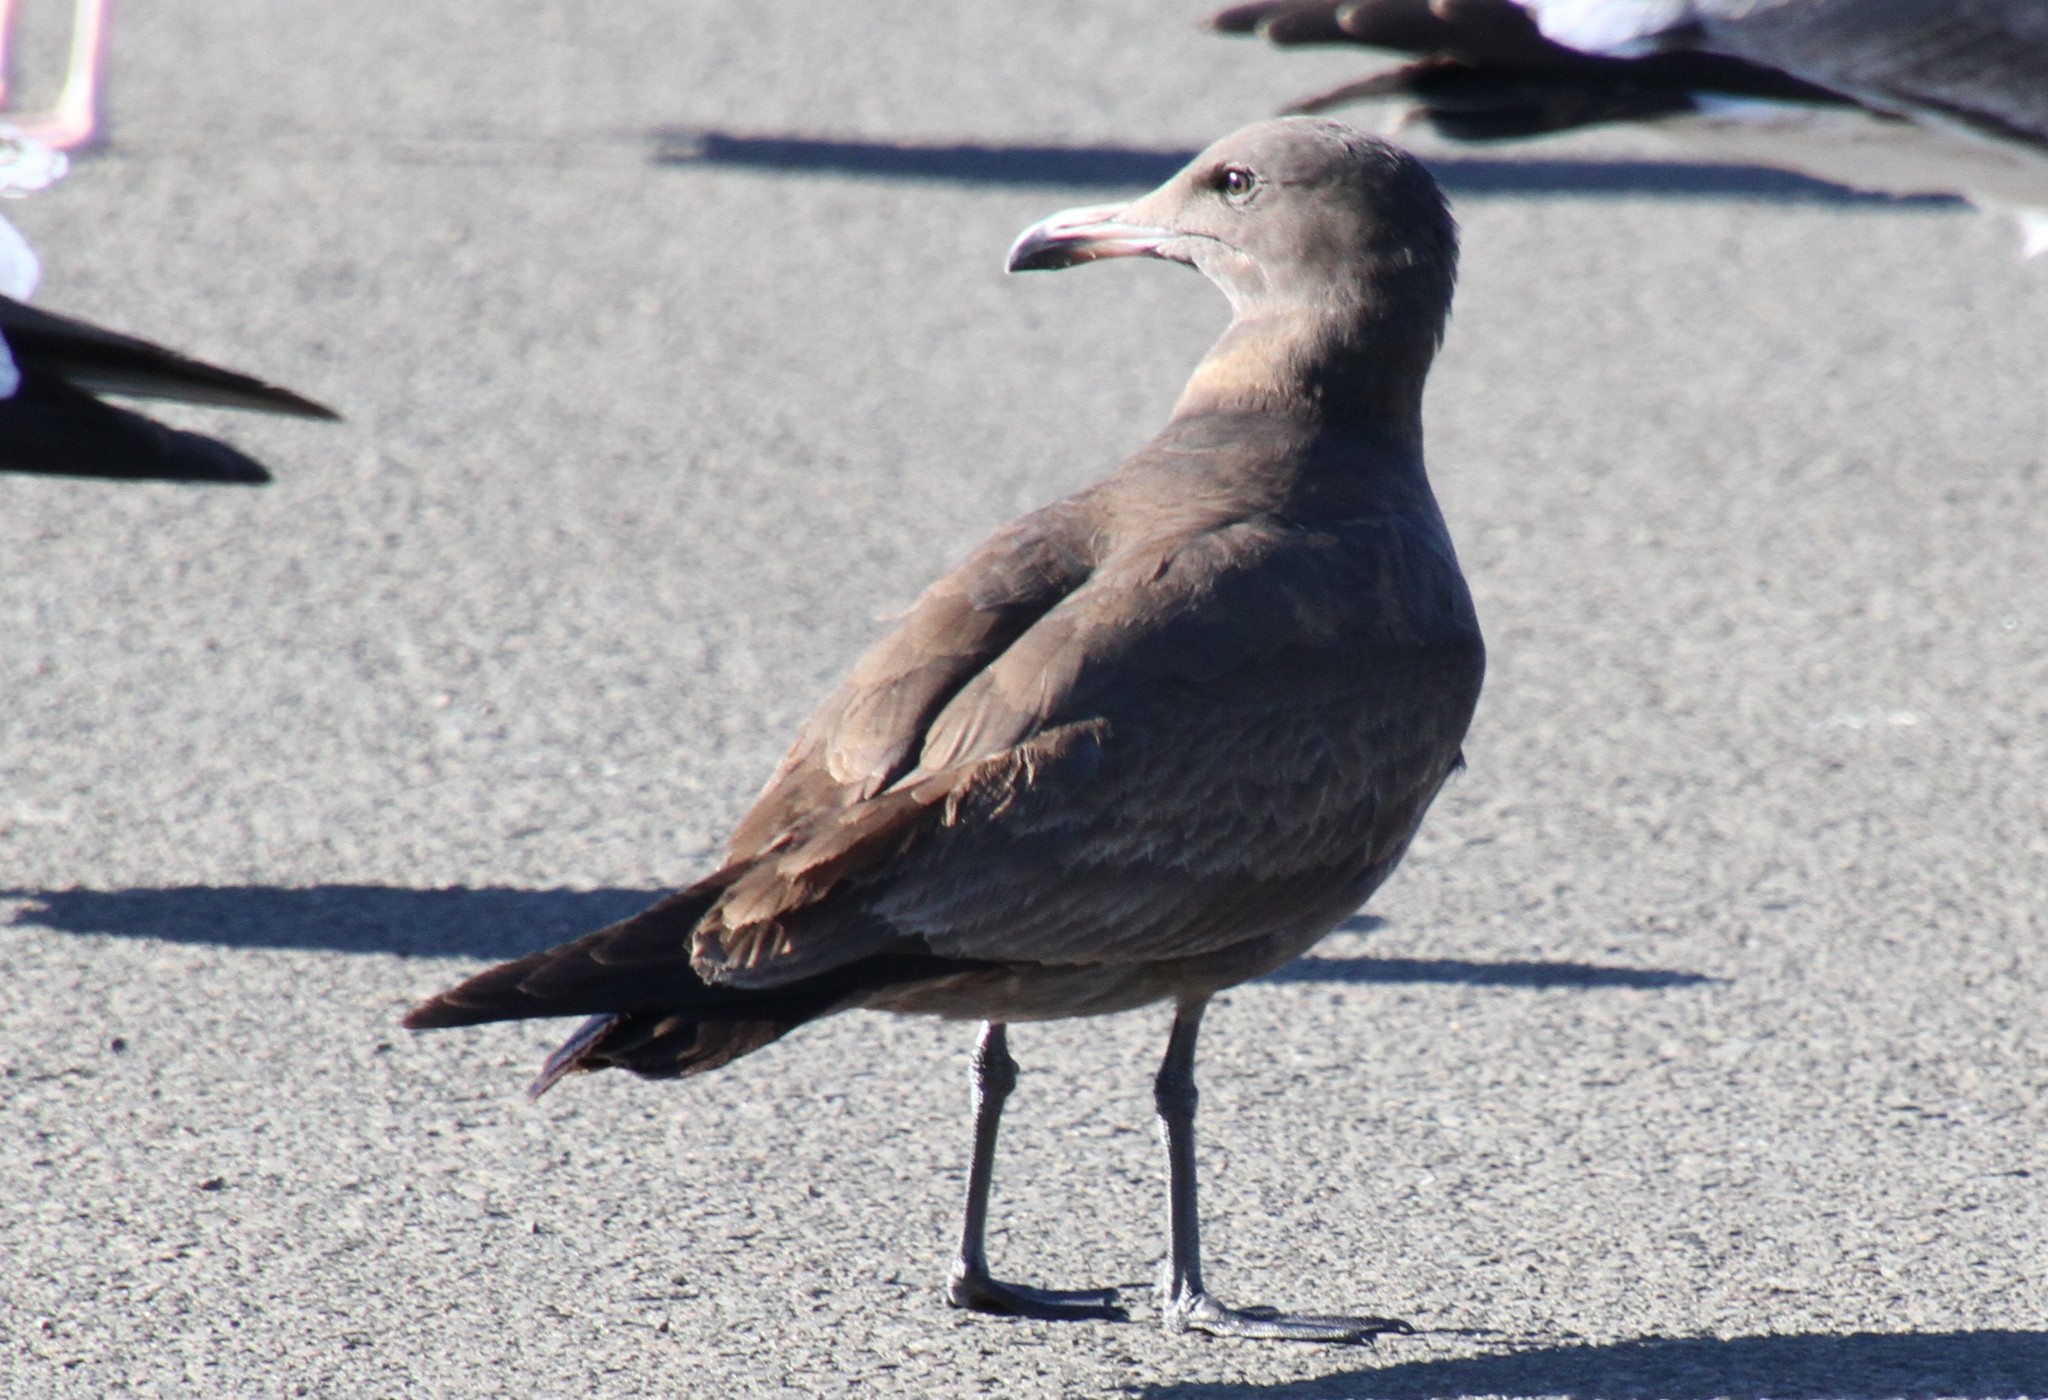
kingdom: Animalia
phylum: Chordata
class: Aves
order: Charadriiformes
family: Laridae
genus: Larus
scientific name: Larus heermanni
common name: Heermann's gull
